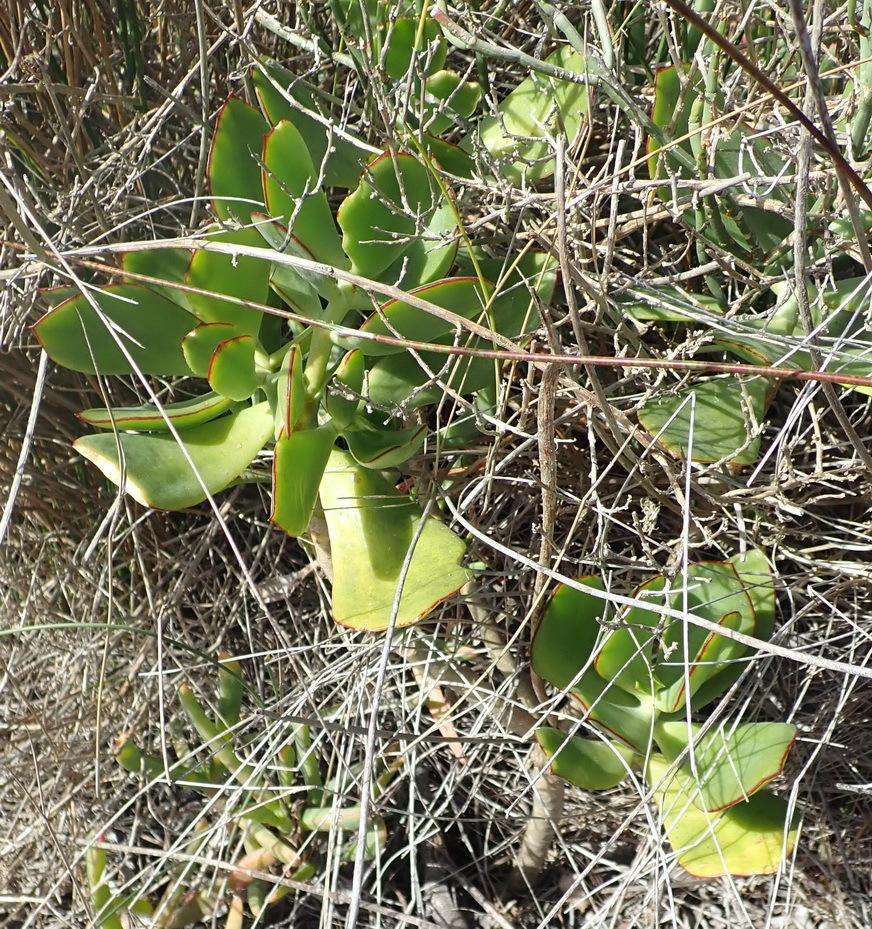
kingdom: Plantae
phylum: Tracheophyta
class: Magnoliopsida
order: Saxifragales
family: Crassulaceae
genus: Cotyledon
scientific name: Cotyledon orbiculata
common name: Pig's ear
